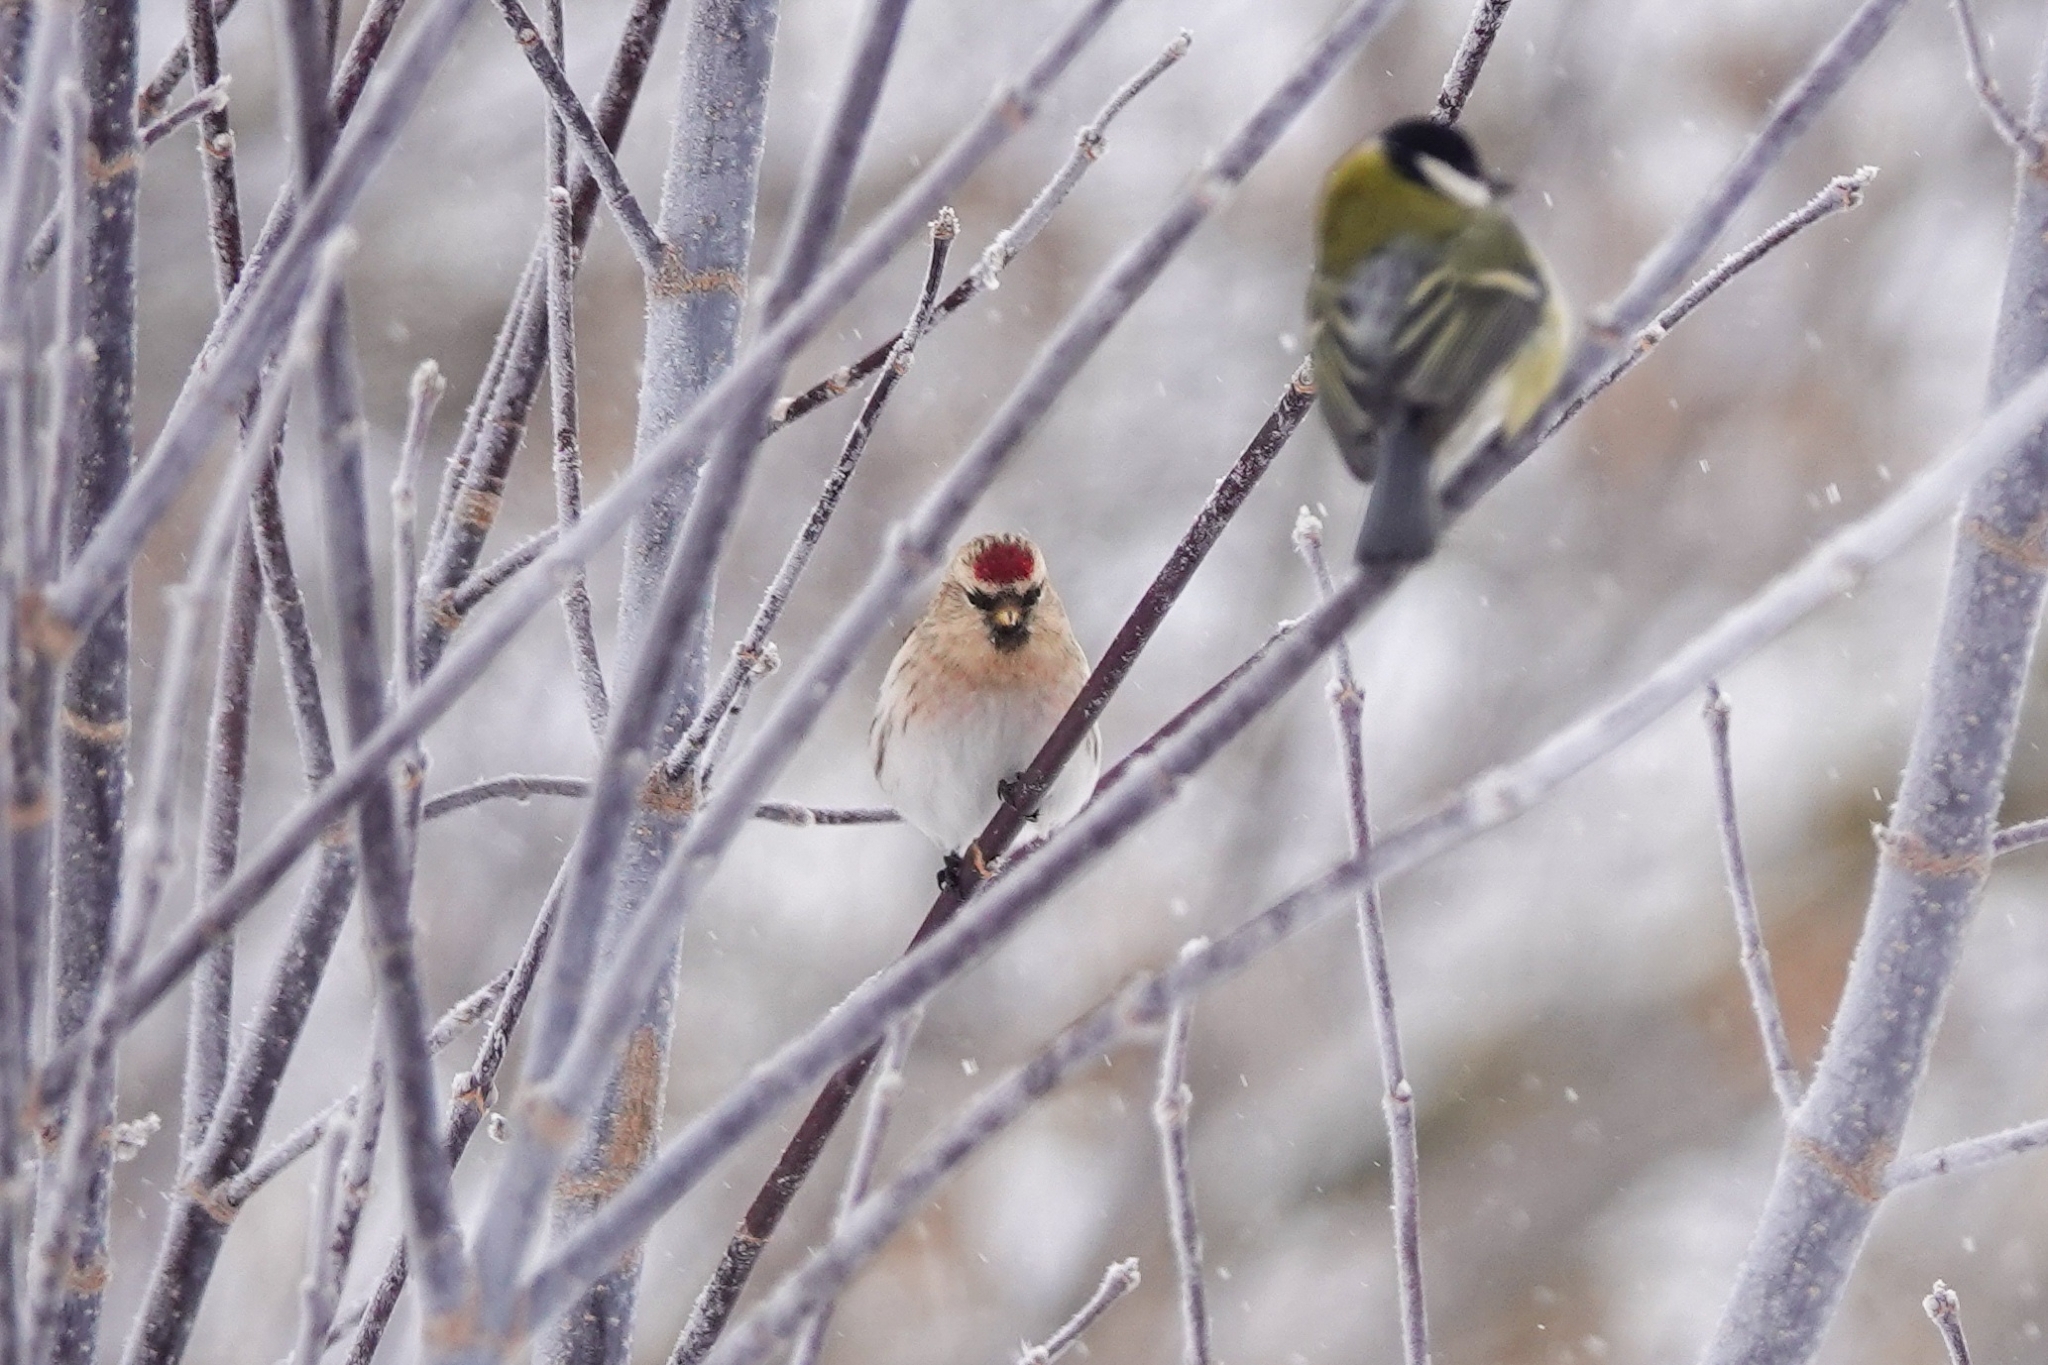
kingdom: Animalia
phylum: Chordata
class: Aves
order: Passeriformes
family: Fringillidae
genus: Acanthis
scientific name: Acanthis hornemanni
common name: Arctic redpoll
